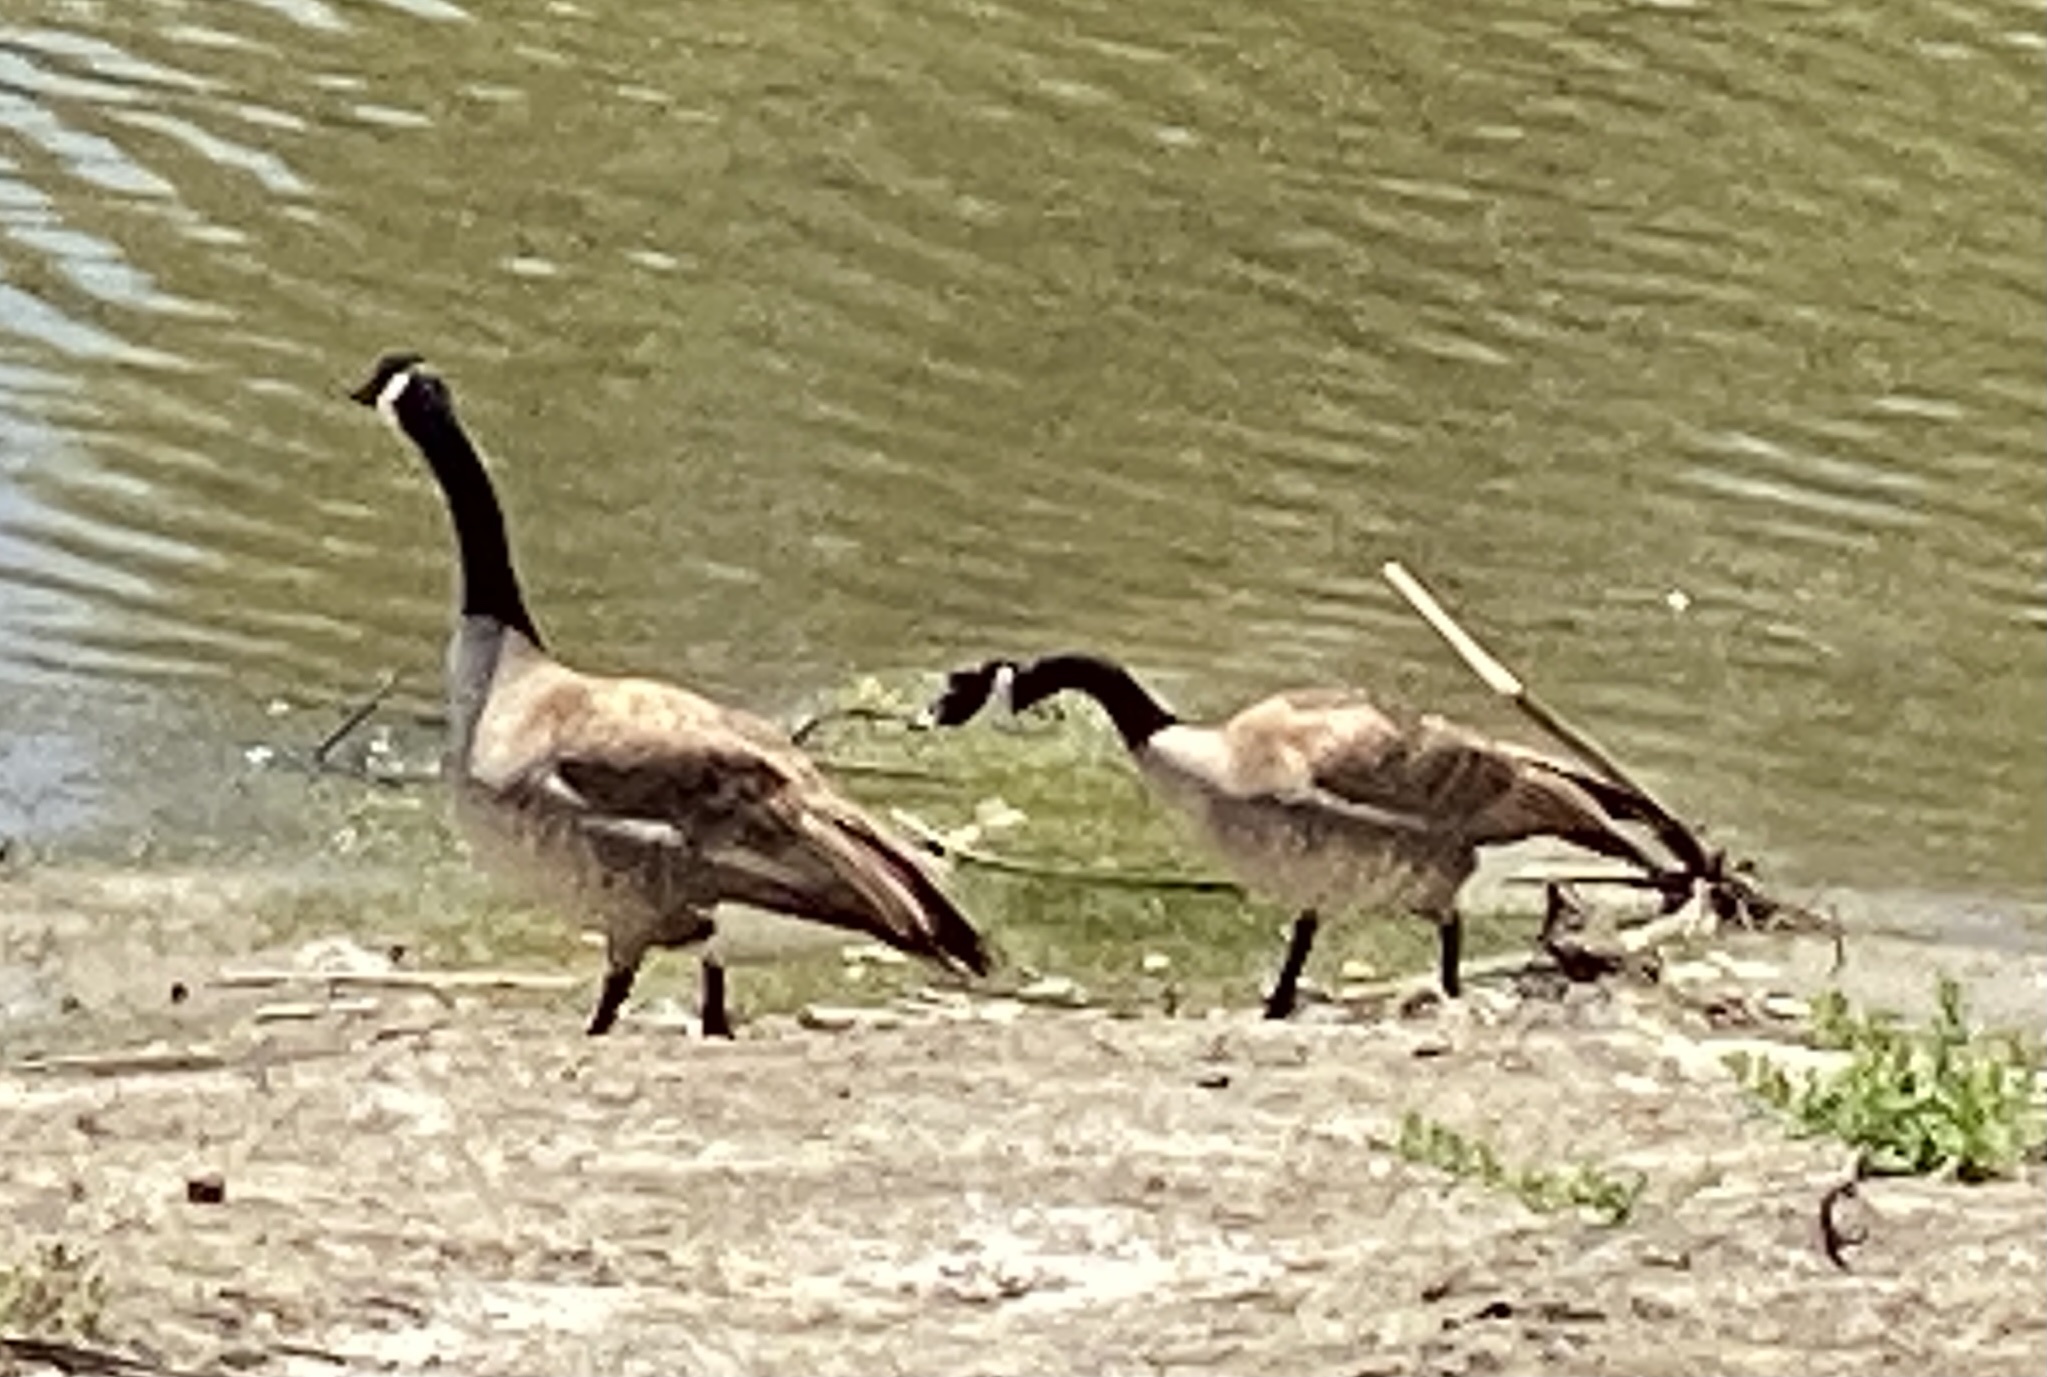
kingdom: Animalia
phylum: Chordata
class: Aves
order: Anseriformes
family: Anatidae
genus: Branta
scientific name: Branta canadensis
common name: Canada goose
